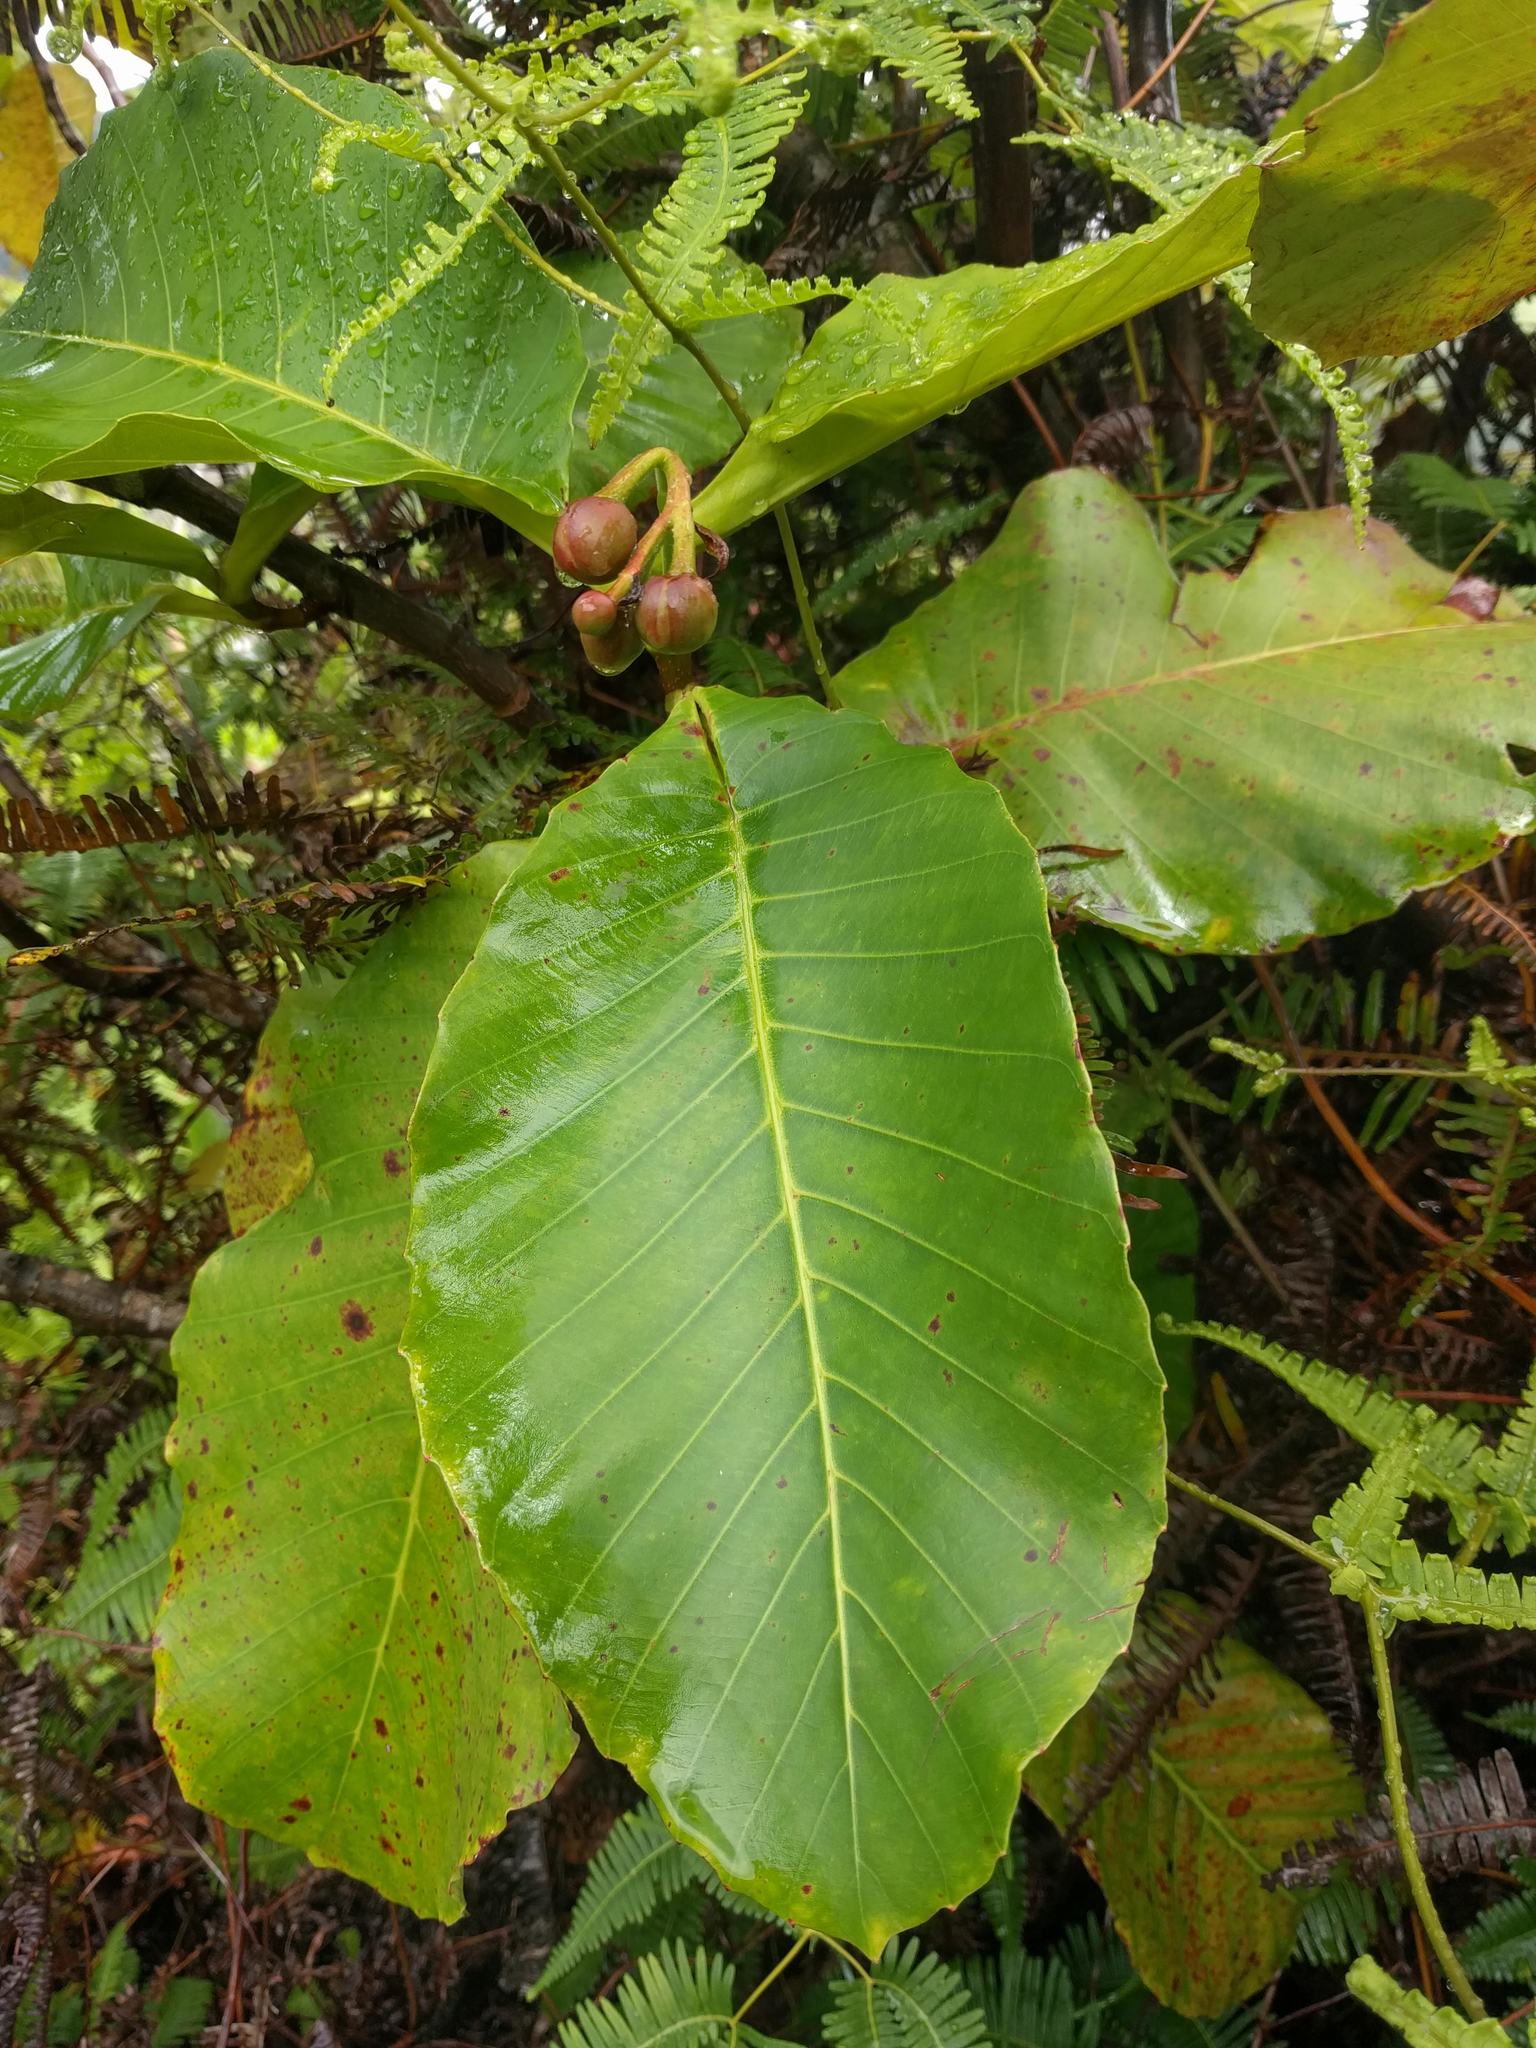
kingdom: Plantae
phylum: Tracheophyta
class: Magnoliopsida
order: Dilleniales
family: Dilleniaceae
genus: Dillenia
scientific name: Dillenia suffruticosa
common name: Shrubby dillenia
